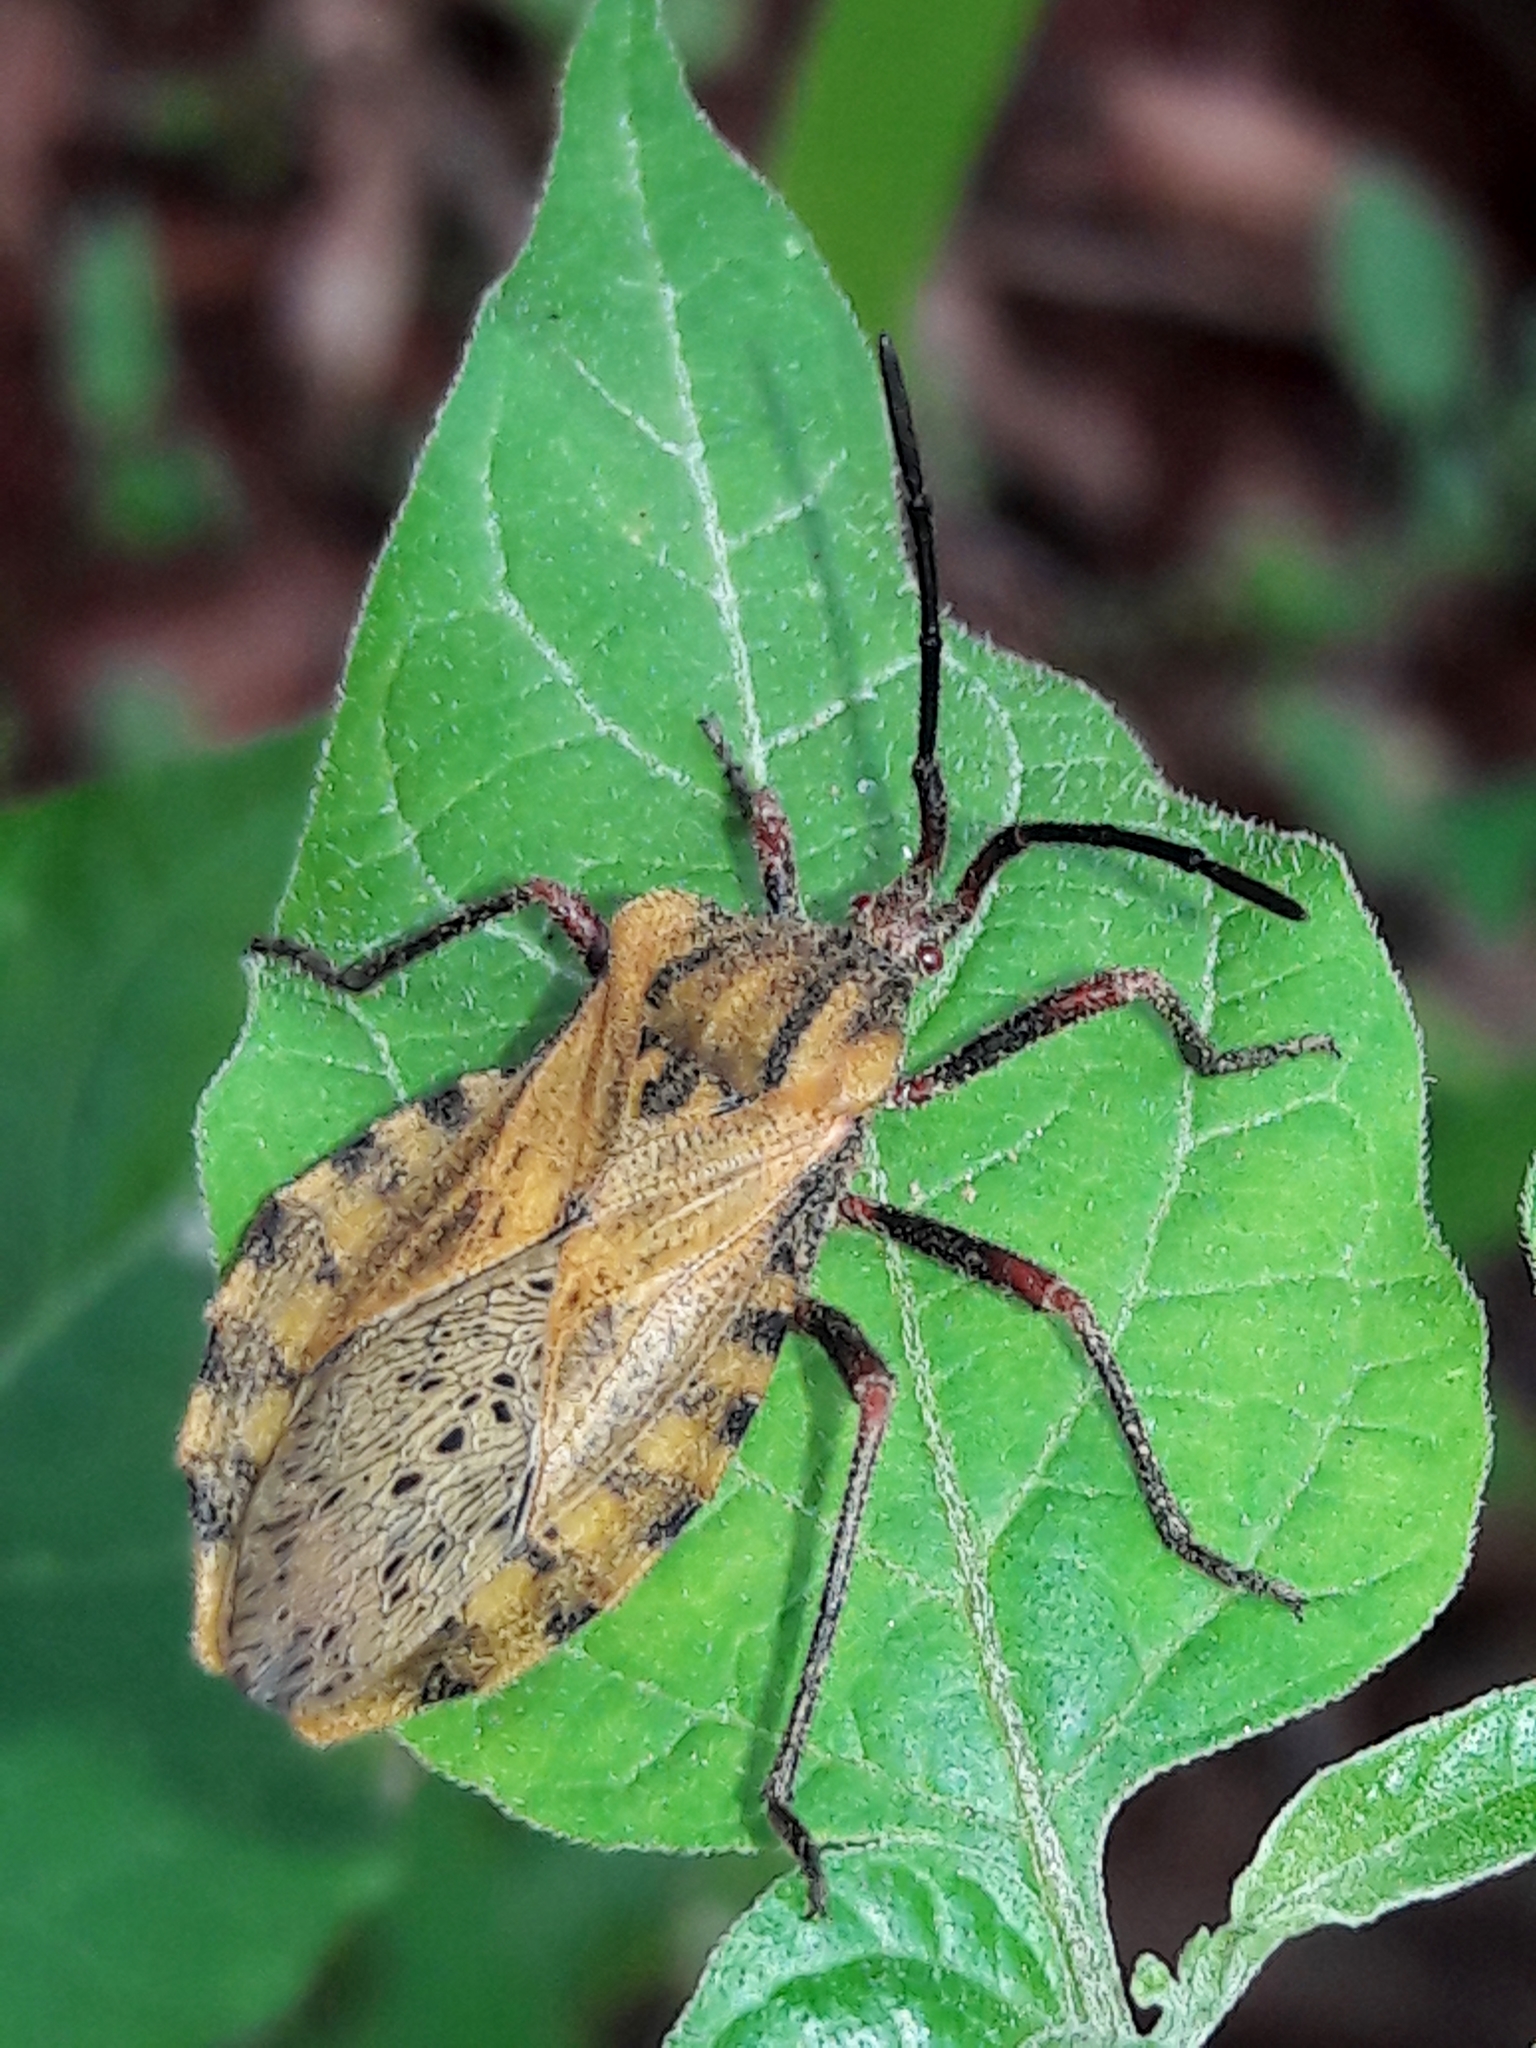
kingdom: Animalia
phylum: Arthropoda
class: Insecta
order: Hemiptera
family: Coreidae
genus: Spartocera
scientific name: Spartocera fusca
